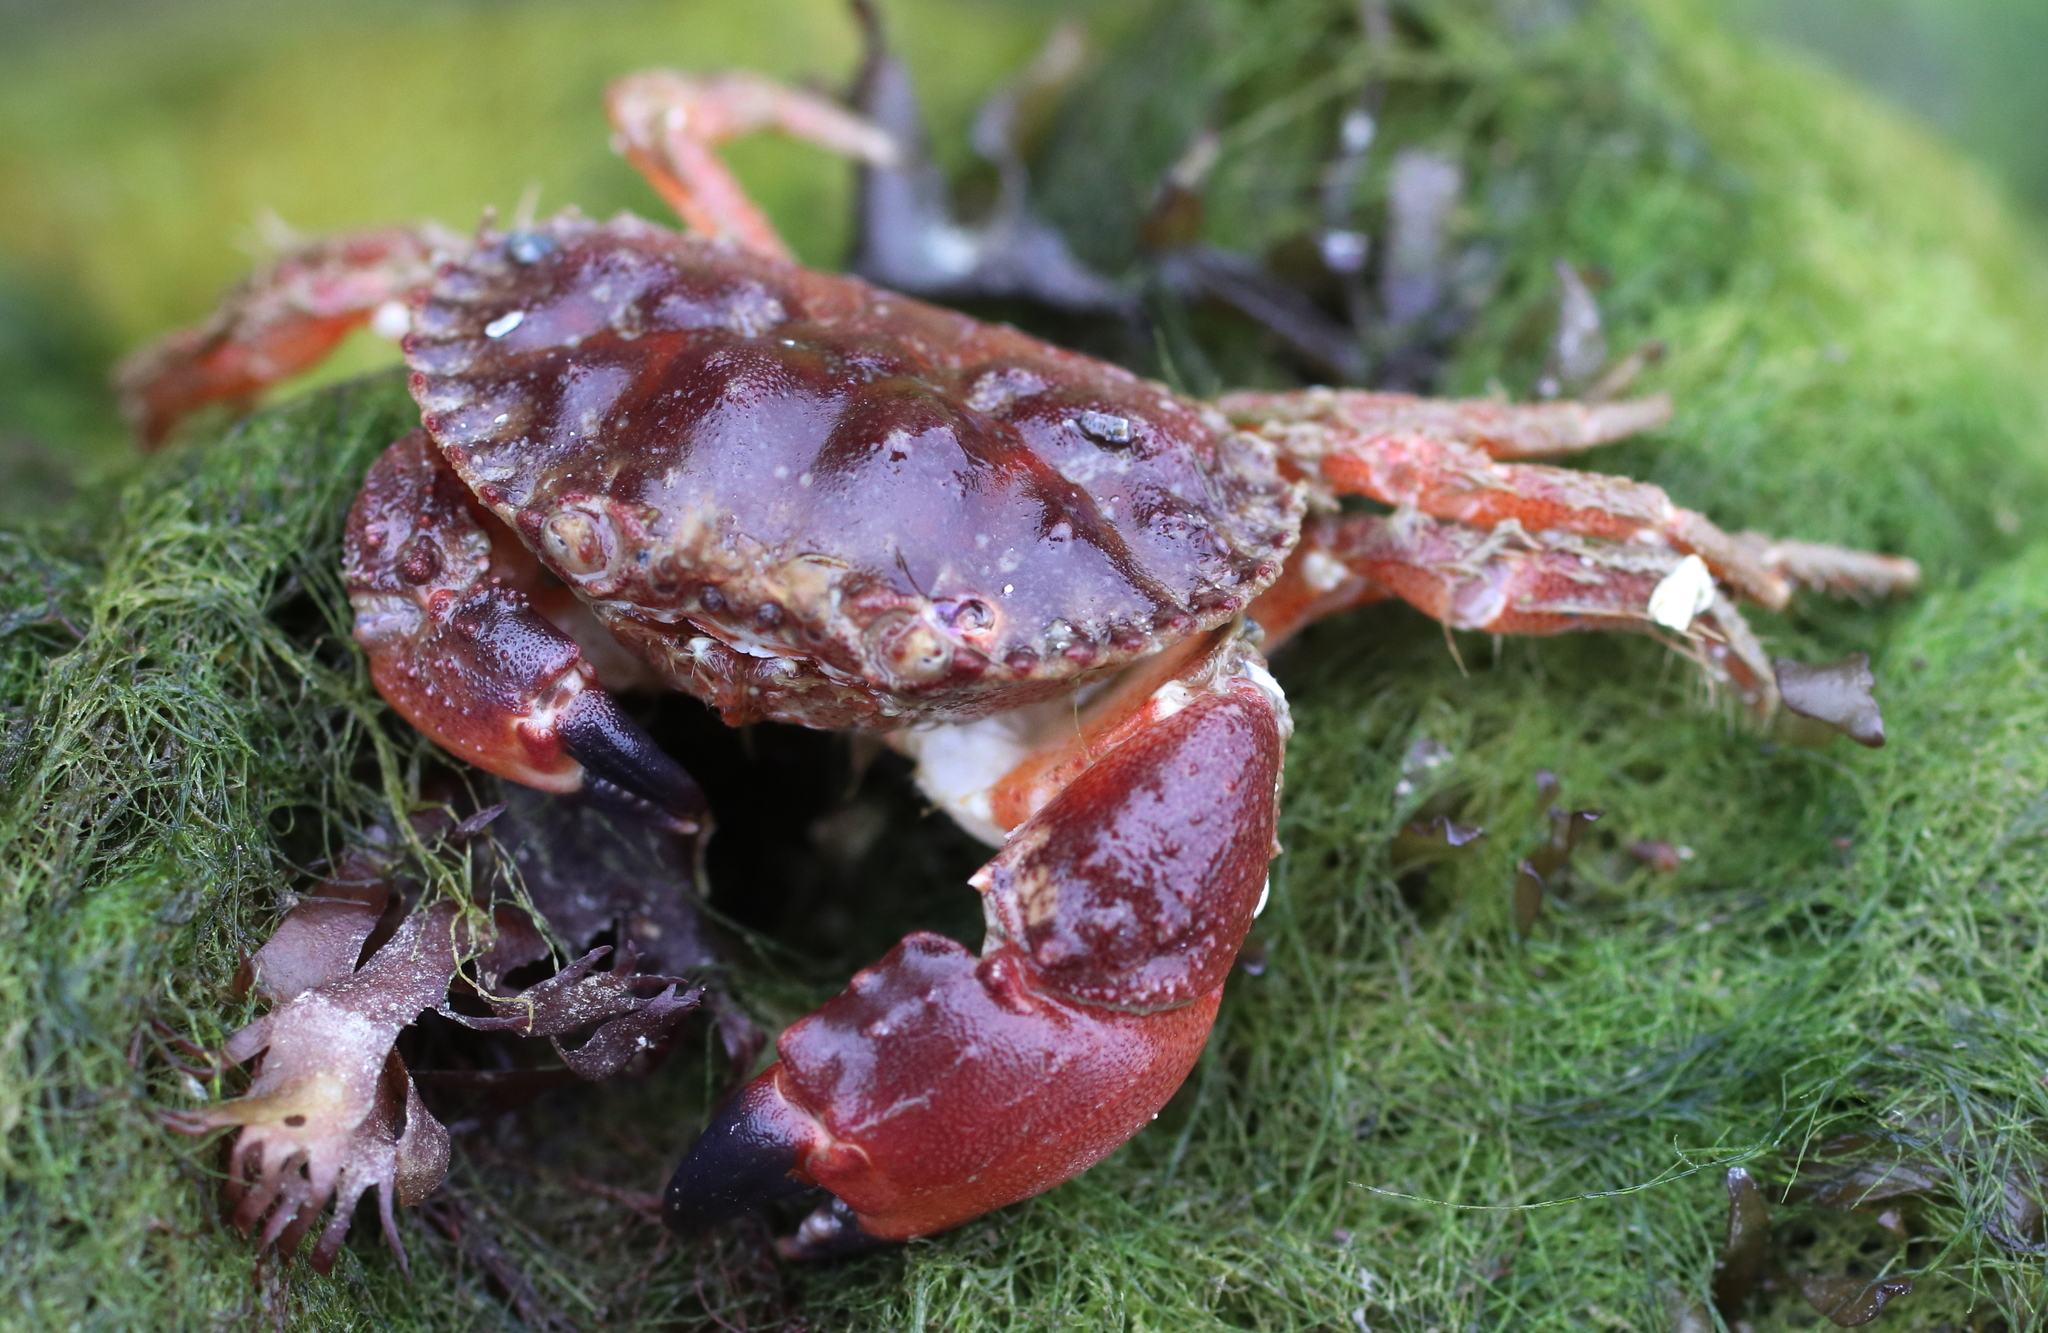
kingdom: Animalia
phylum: Arthropoda
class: Malacostraca
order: Decapoda
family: Cancridae
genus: Glebocarcinus
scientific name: Glebocarcinus oregonensis
